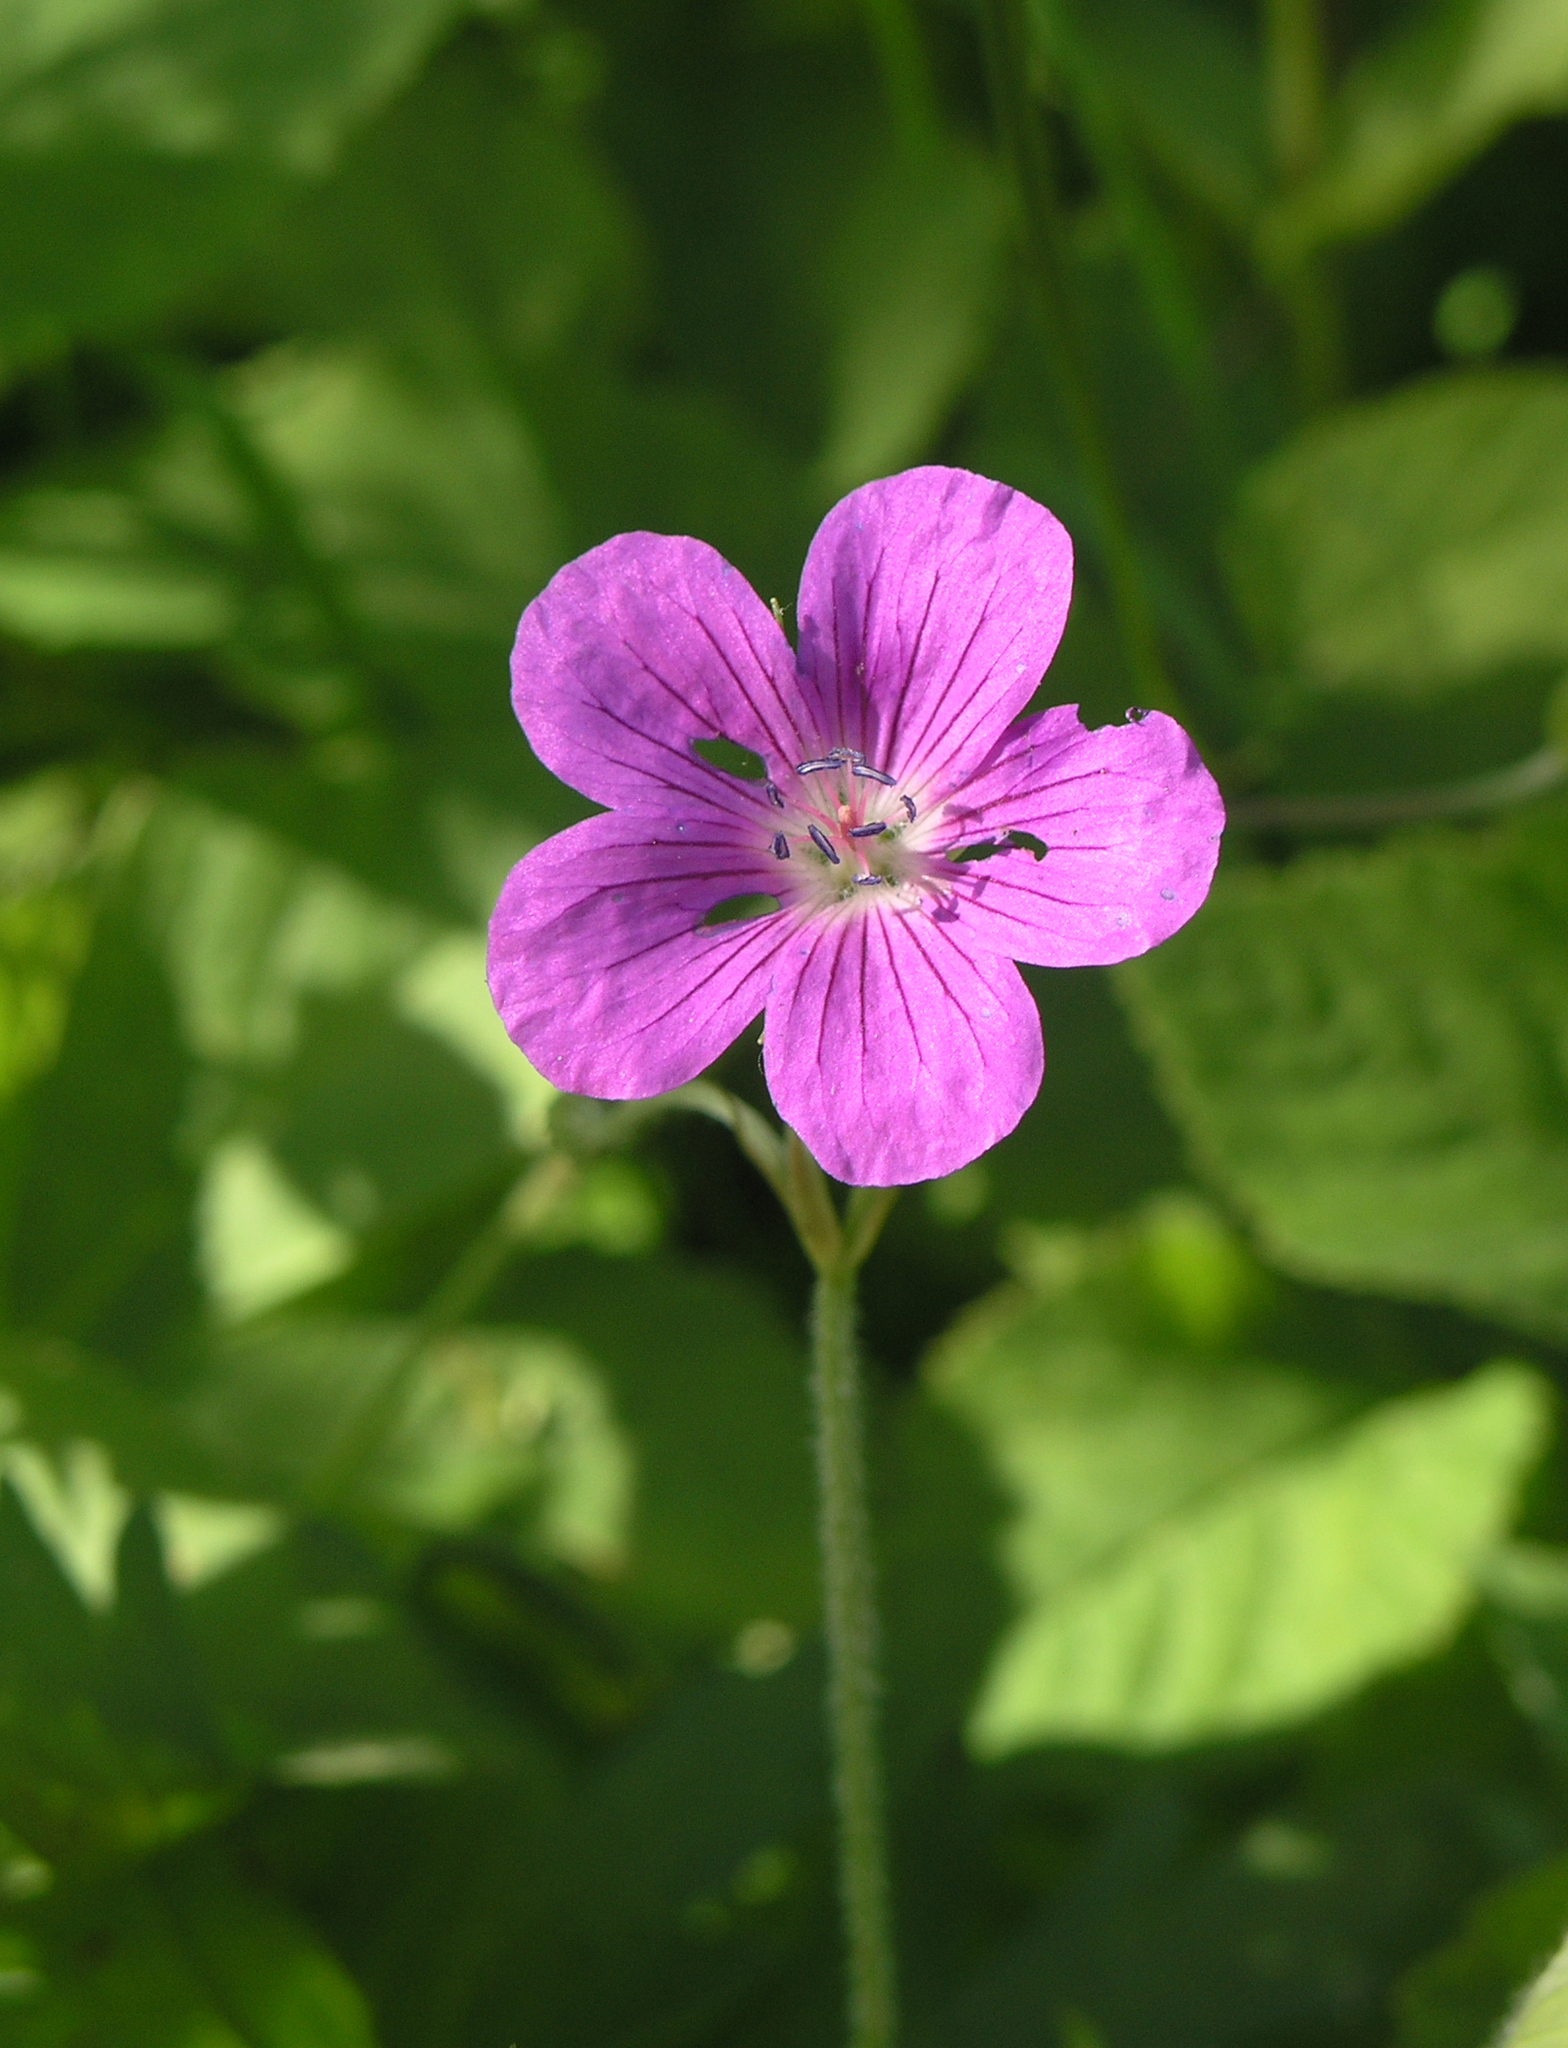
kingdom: Plantae
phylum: Tracheophyta
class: Magnoliopsida
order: Geraniales
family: Geraniaceae
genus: Geranium
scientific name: Geranium palustre
